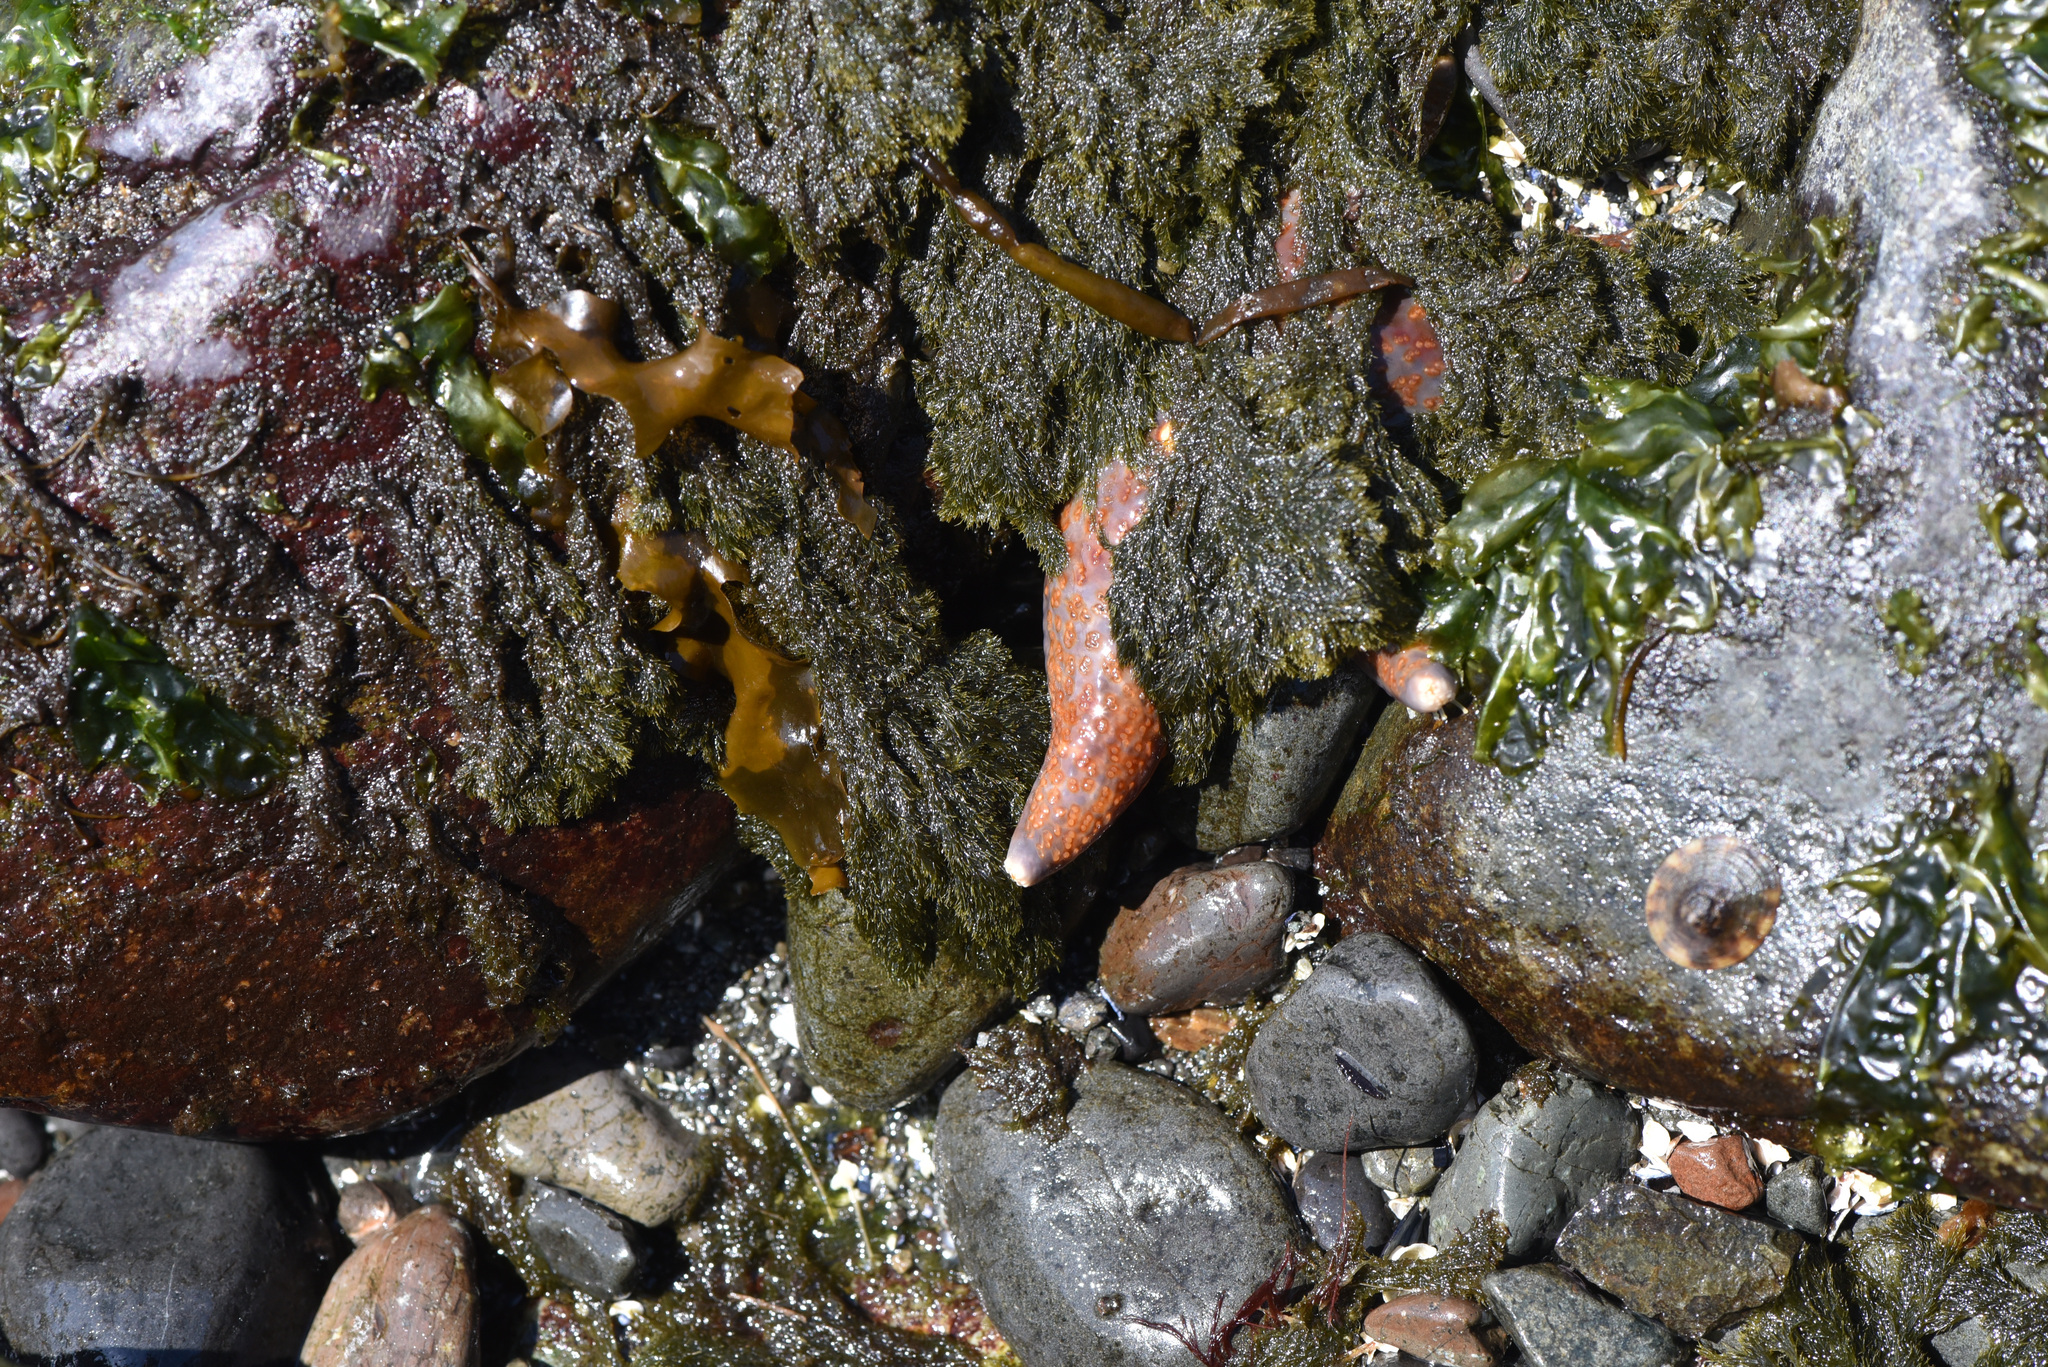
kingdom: Animalia
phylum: Echinodermata
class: Asteroidea
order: Valvatida
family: Asteropseidae
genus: Dermasterias
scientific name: Dermasterias imbricata
